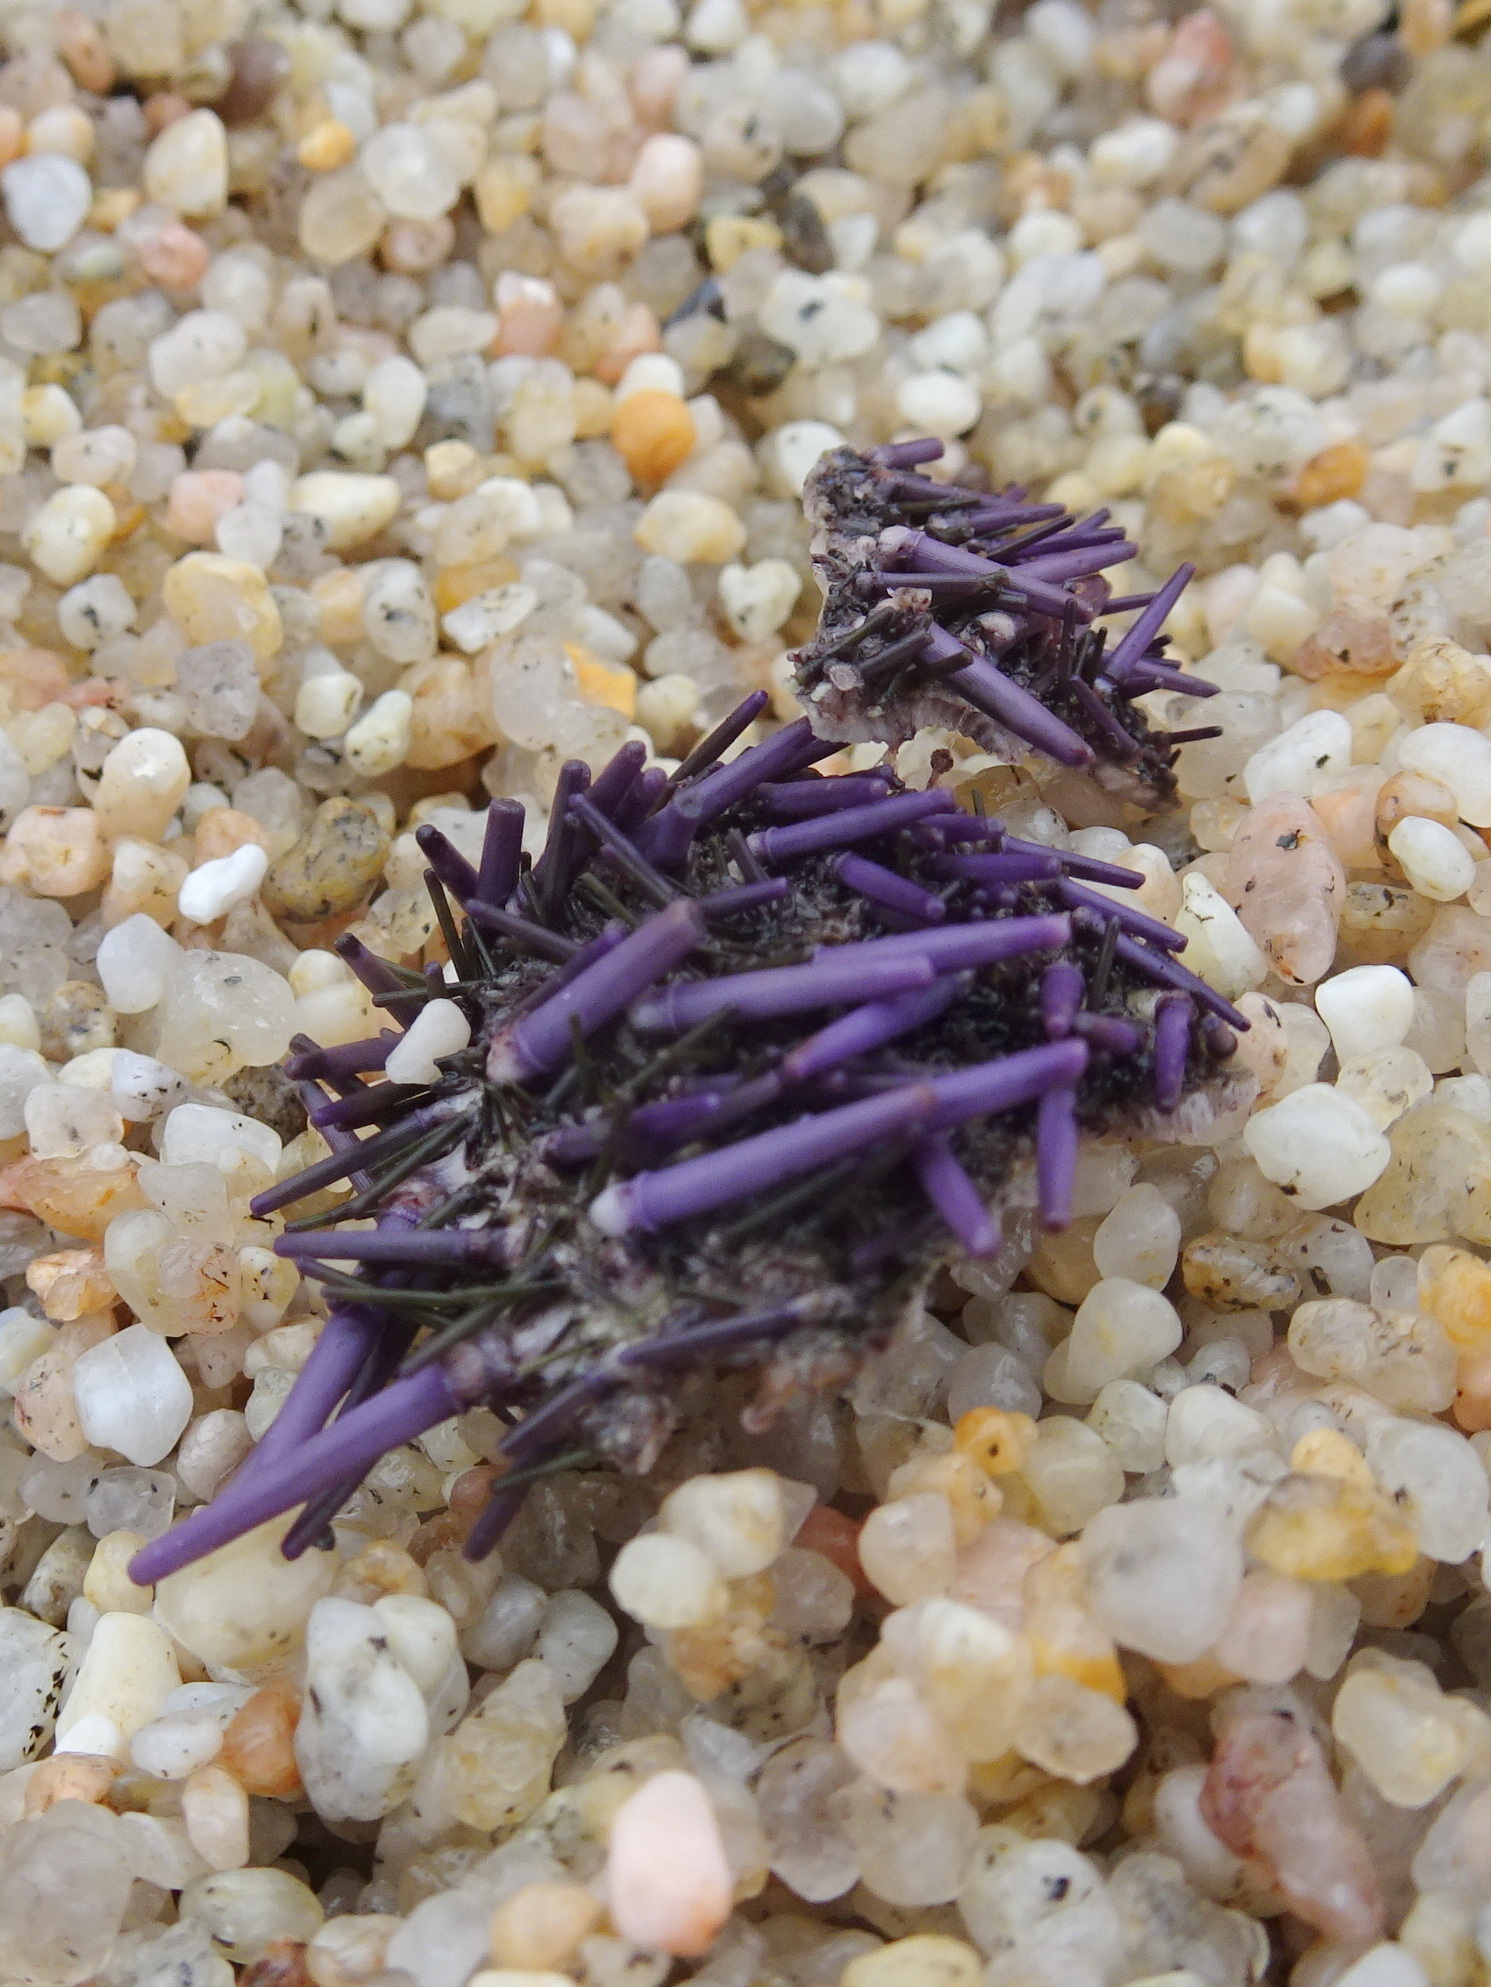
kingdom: Animalia
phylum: Echinodermata
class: Echinoidea
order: Camarodonta
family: Strongylocentrotidae
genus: Strongylocentrotus
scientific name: Strongylocentrotus purpuratus
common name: Purple sea urchin
